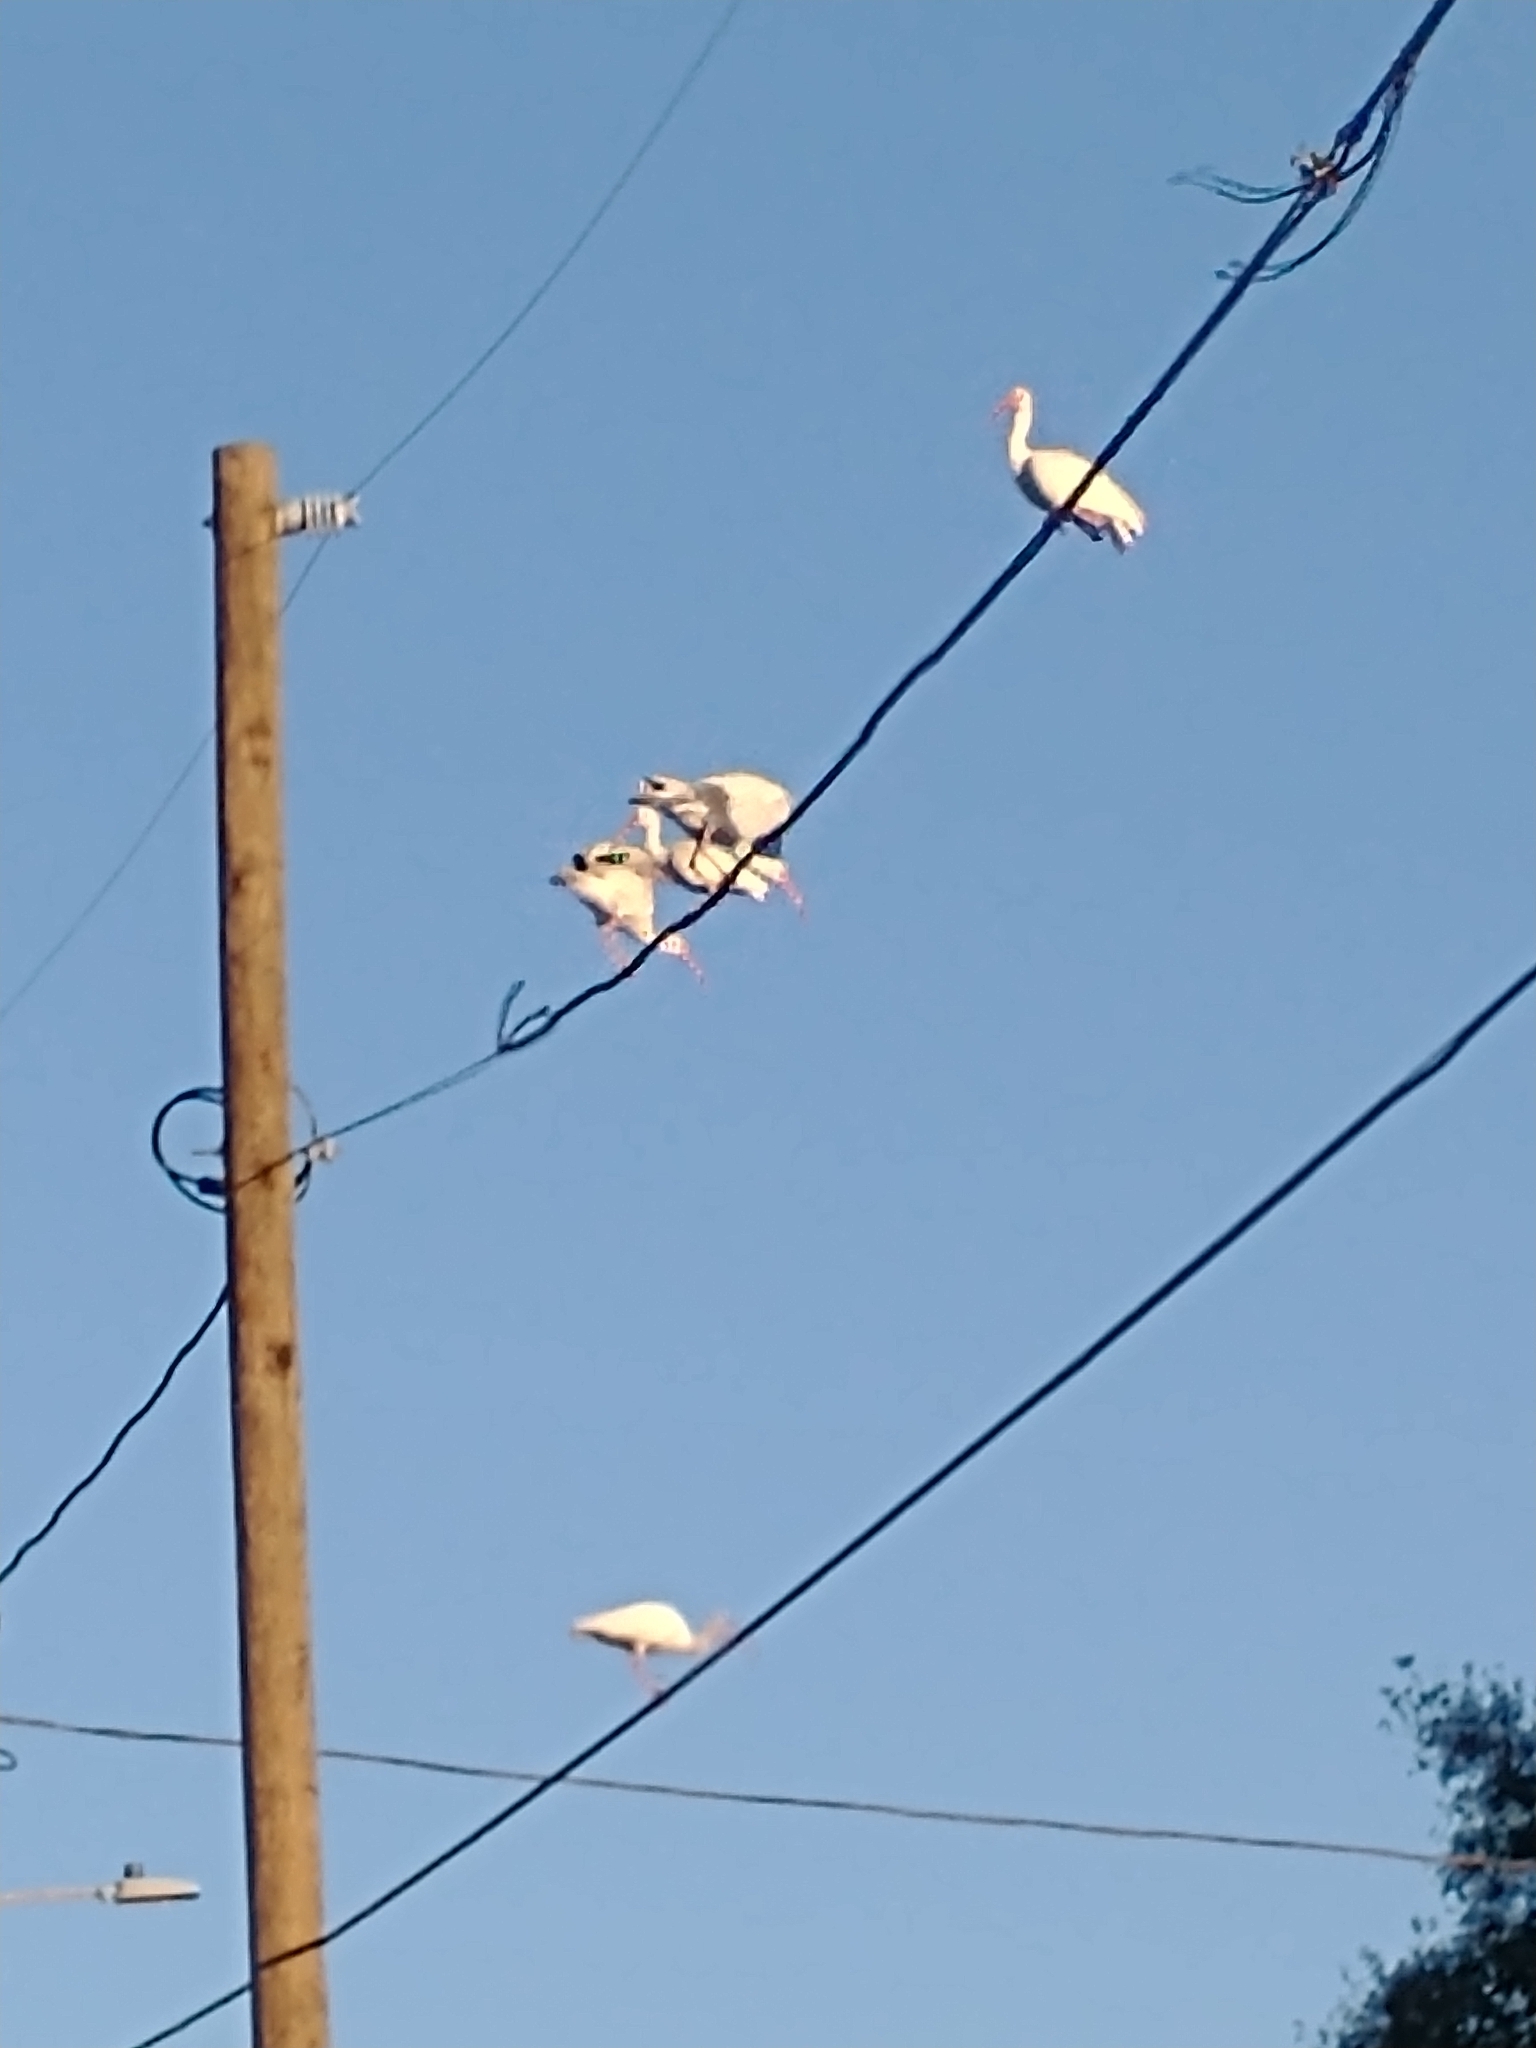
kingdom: Animalia
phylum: Chordata
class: Aves
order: Pelecaniformes
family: Threskiornithidae
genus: Eudocimus
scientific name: Eudocimus albus
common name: White ibis
